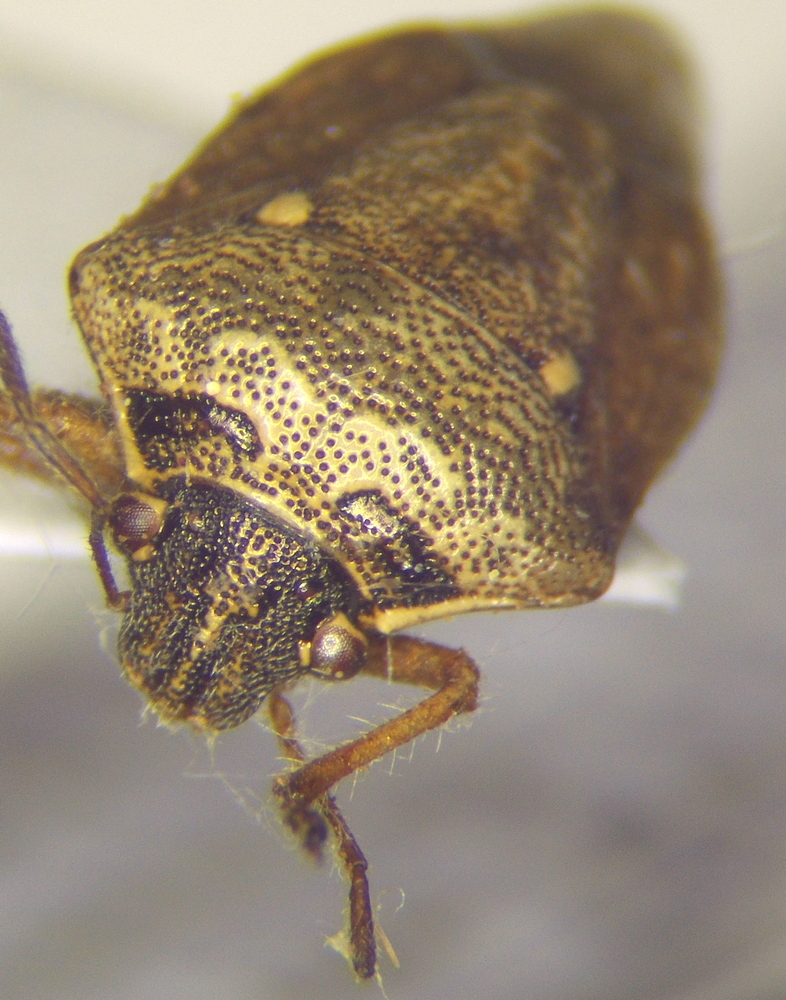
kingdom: Animalia
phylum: Arthropoda
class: Insecta
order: Hemiptera
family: Pentatomidae
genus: Eysarcoris
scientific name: Eysarcoris ventralis
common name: White-spotted stink bug
